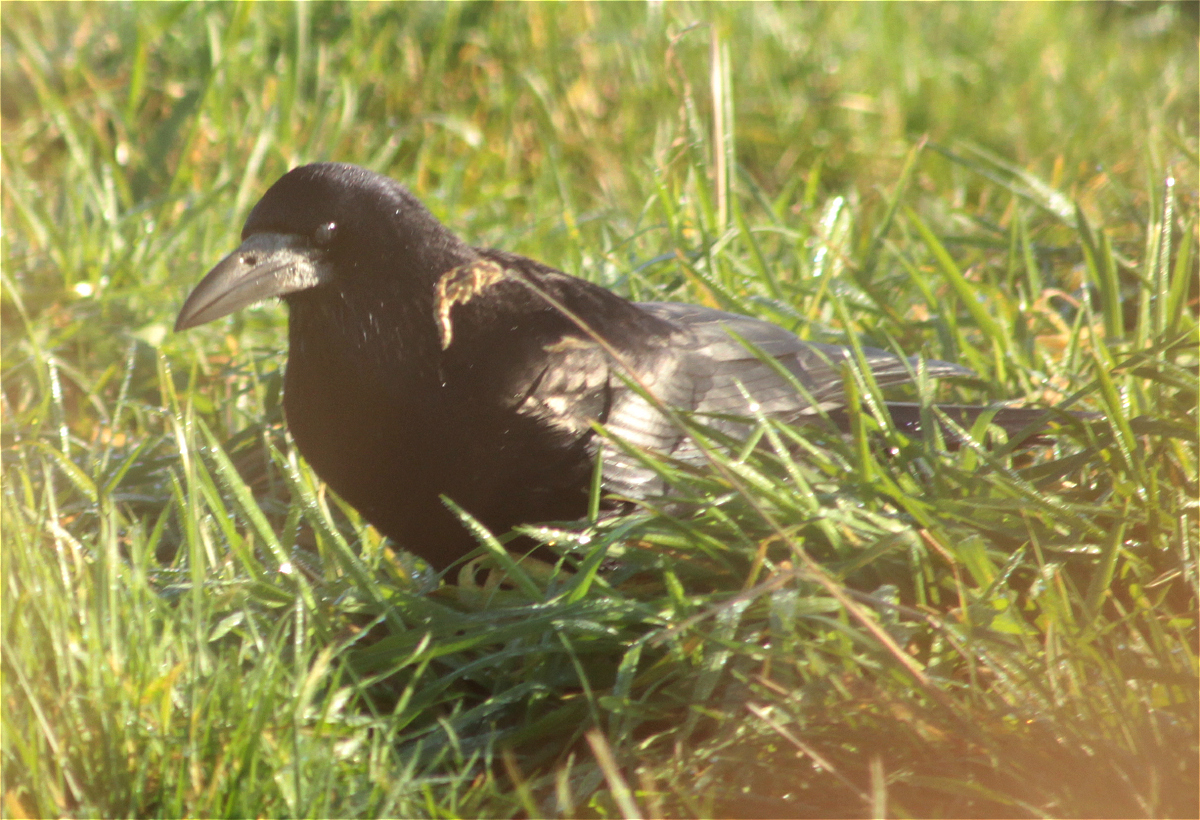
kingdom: Animalia
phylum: Chordata
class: Aves
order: Passeriformes
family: Corvidae
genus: Corvus
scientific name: Corvus frugilegus
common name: Rook
